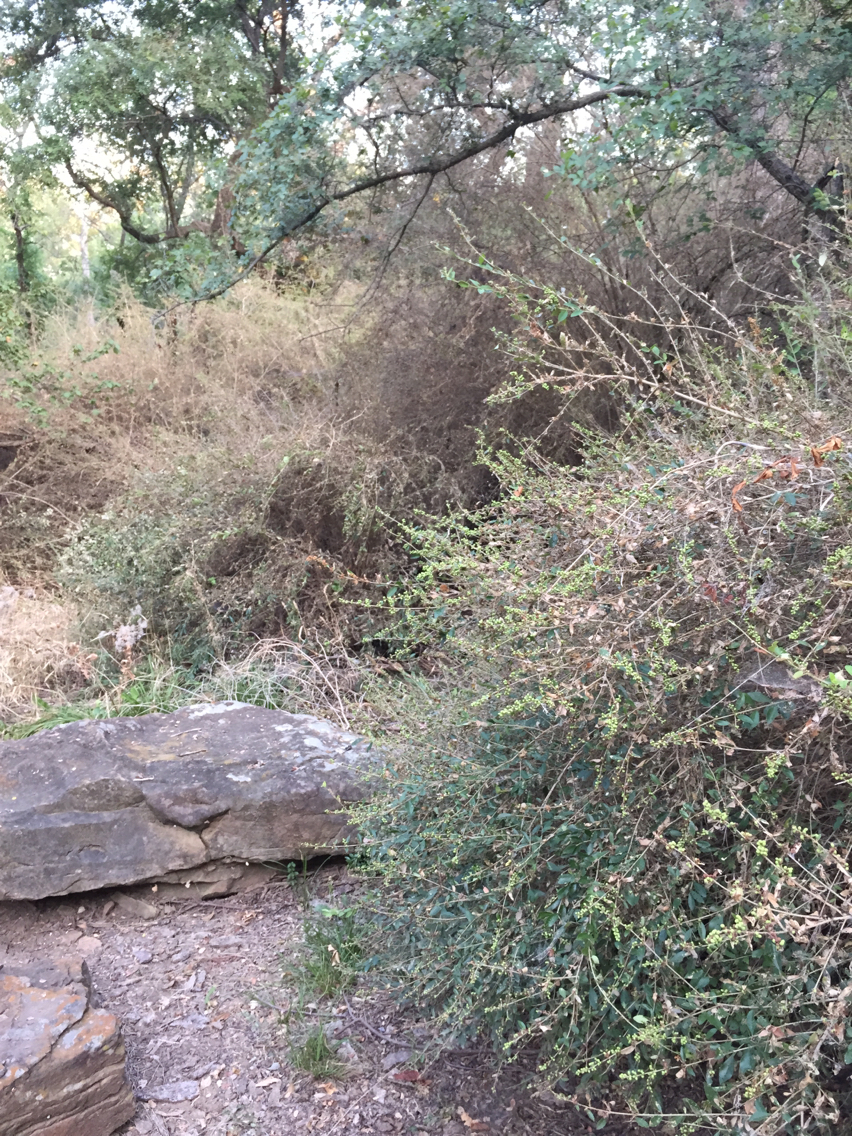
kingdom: Plantae
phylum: Tracheophyta
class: Magnoliopsida
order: Lamiales
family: Oleaceae
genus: Ligustrum
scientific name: Ligustrum quihoui
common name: Waxyleaf privet
